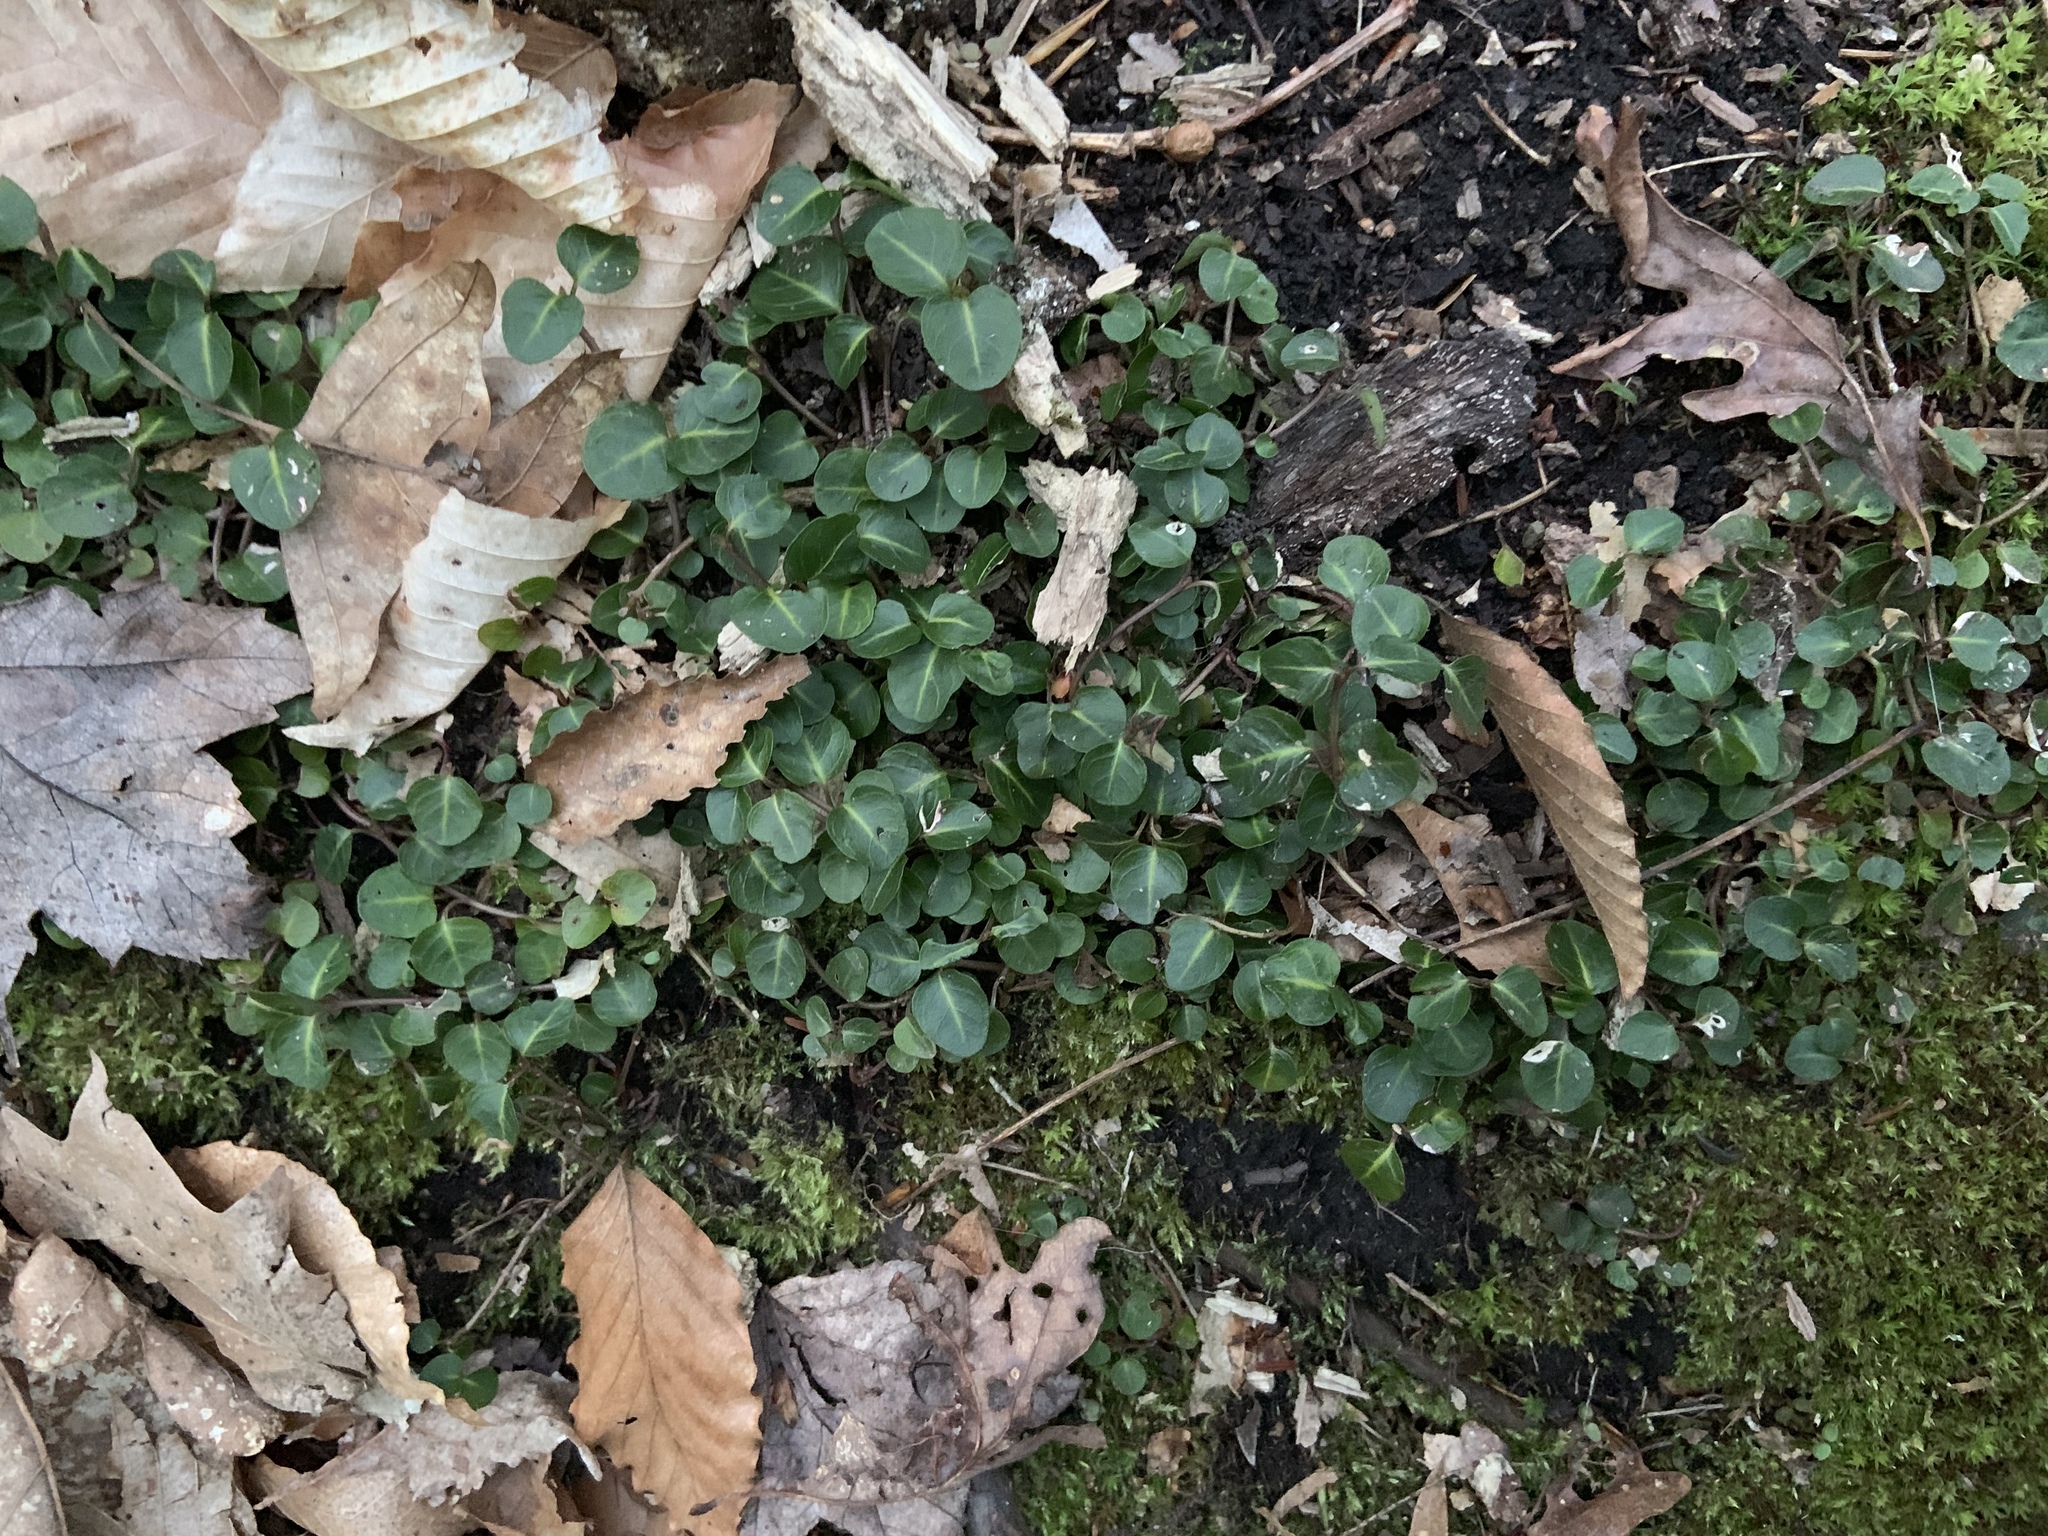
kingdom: Plantae
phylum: Tracheophyta
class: Magnoliopsida
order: Gentianales
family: Rubiaceae
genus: Mitchella
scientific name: Mitchella repens
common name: Partridge-berry
